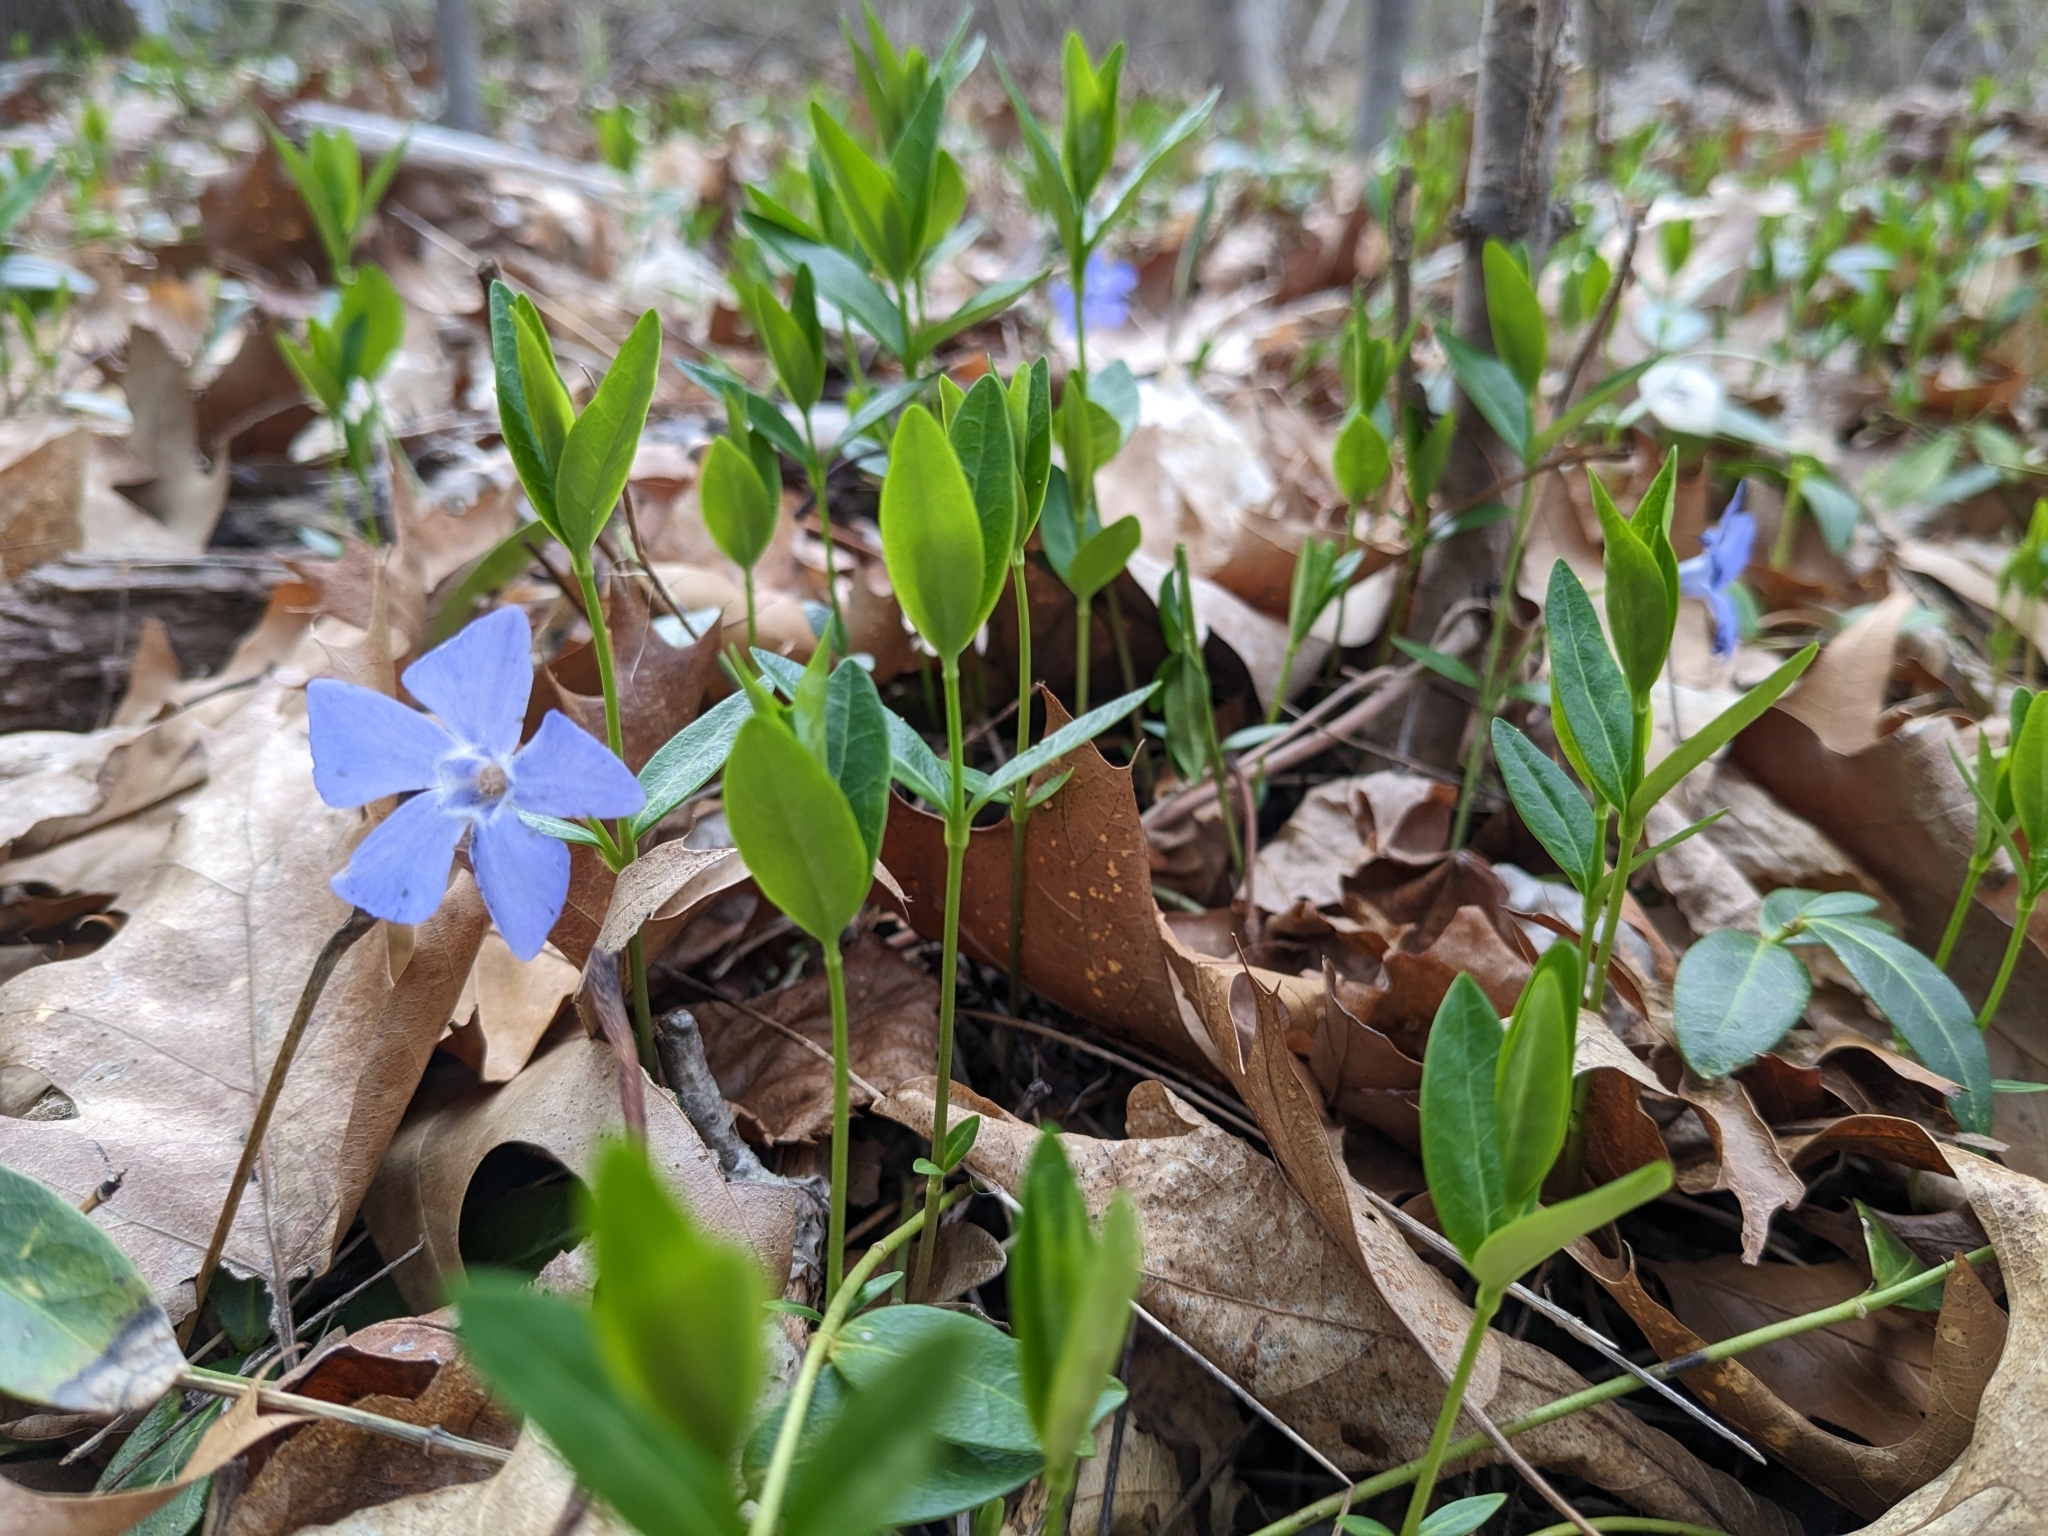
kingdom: Plantae
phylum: Tracheophyta
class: Magnoliopsida
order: Gentianales
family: Apocynaceae
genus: Vinca
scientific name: Vinca minor
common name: Lesser periwinkle
